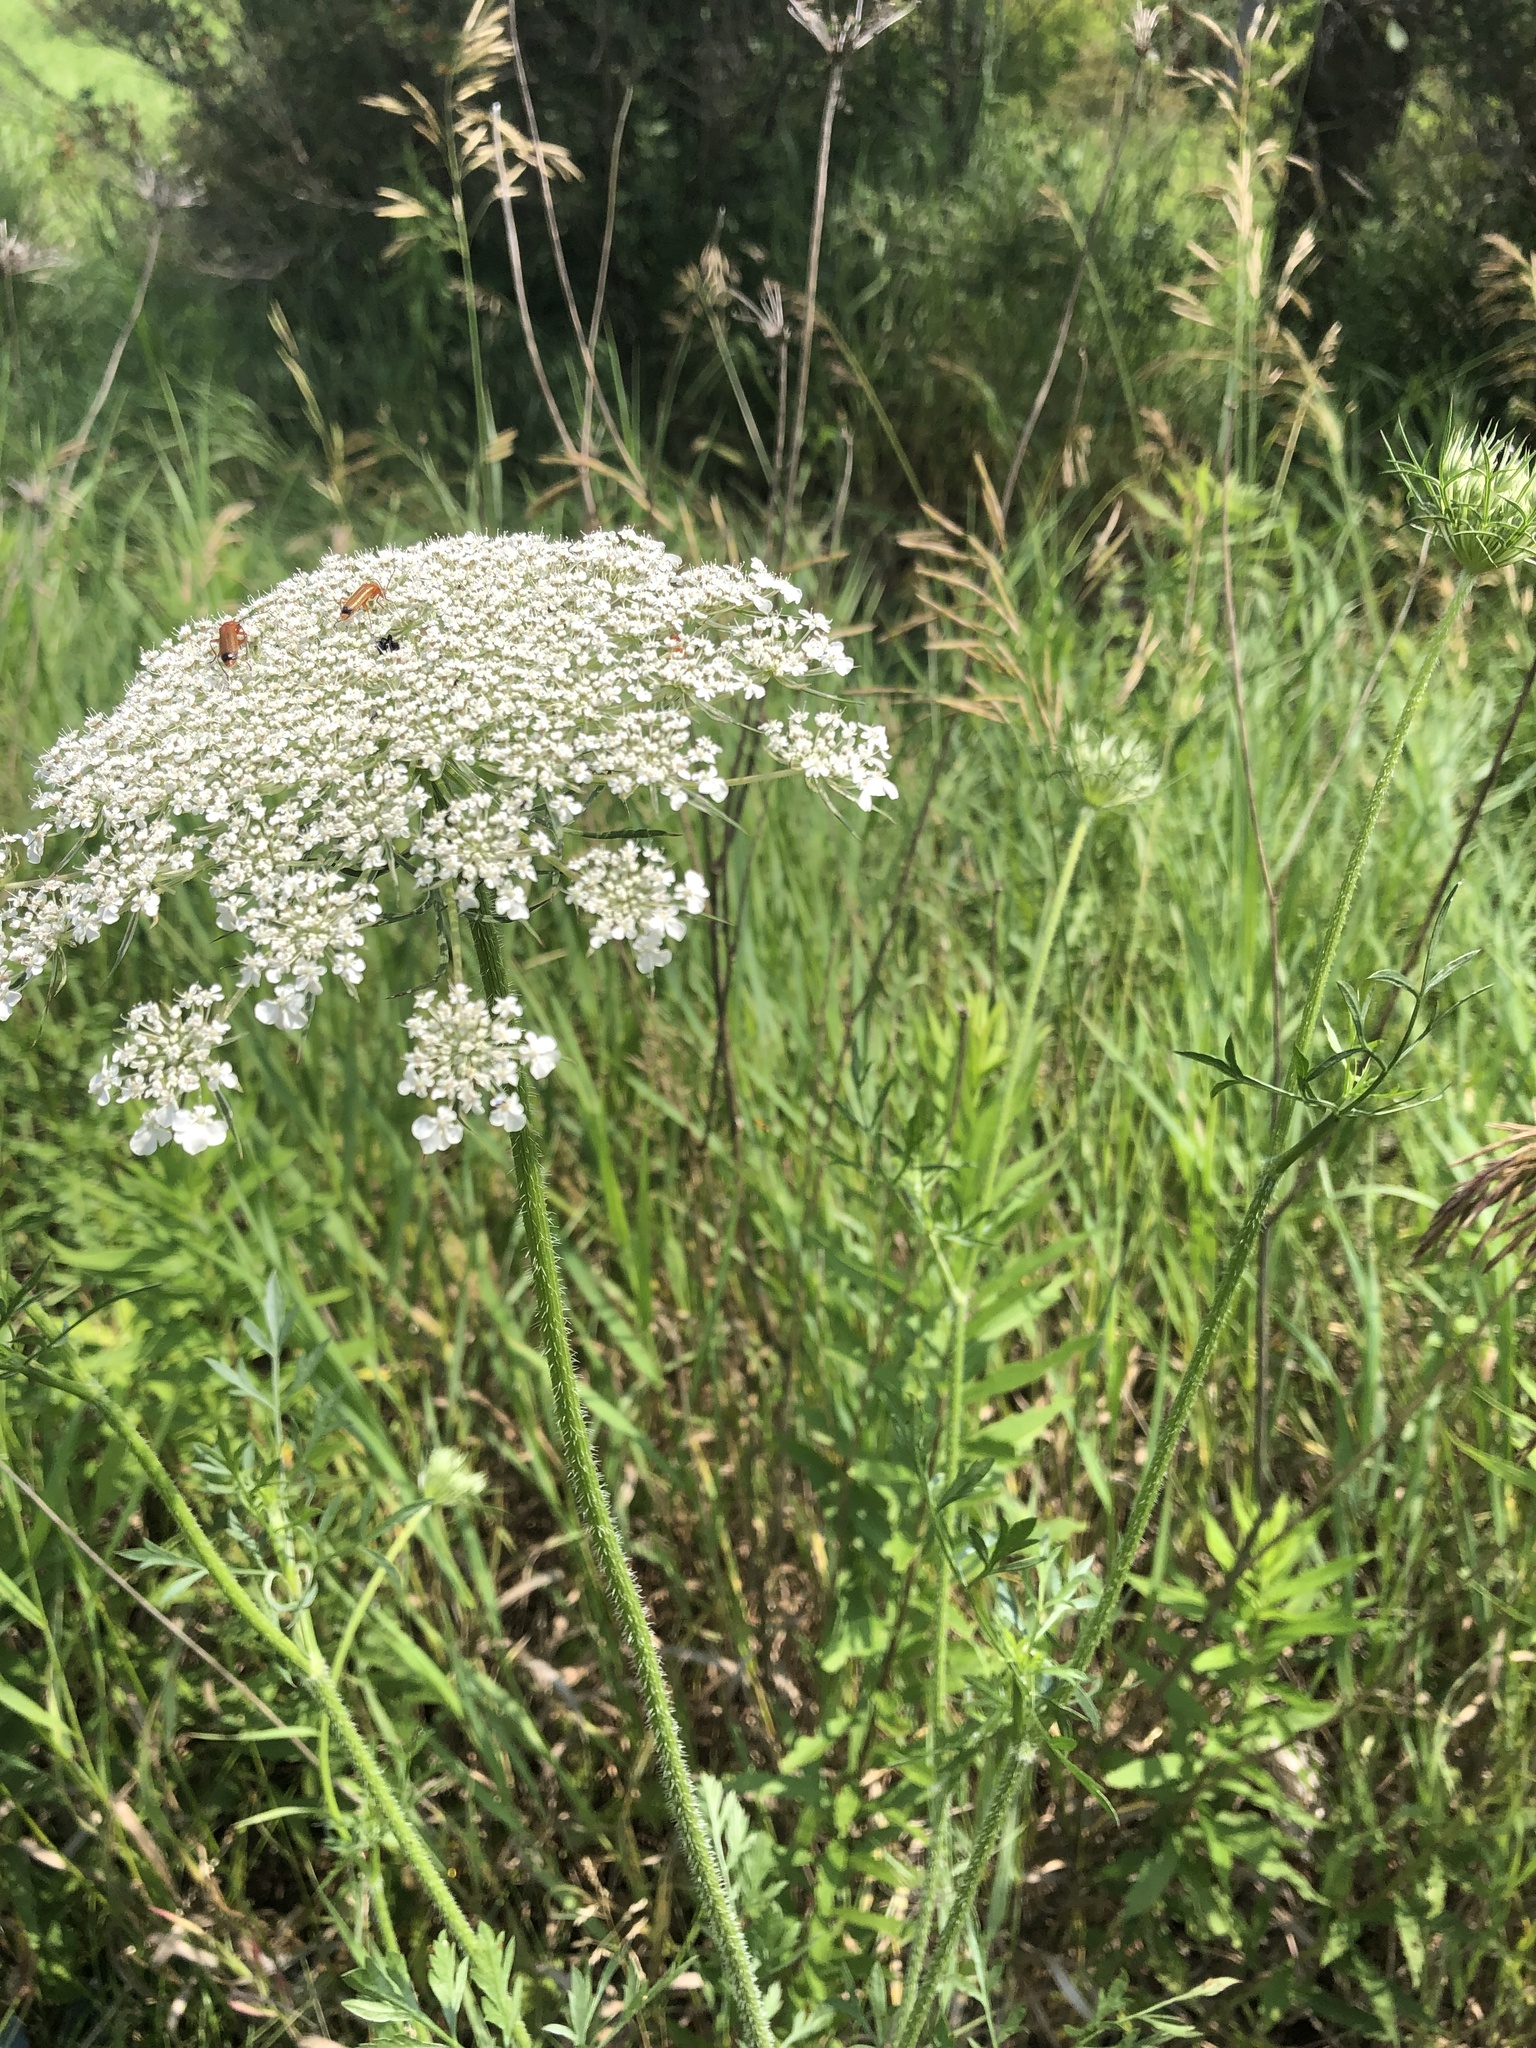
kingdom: Plantae
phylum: Tracheophyta
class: Magnoliopsida
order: Apiales
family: Apiaceae
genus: Daucus
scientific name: Daucus carota
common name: Wild carrot
